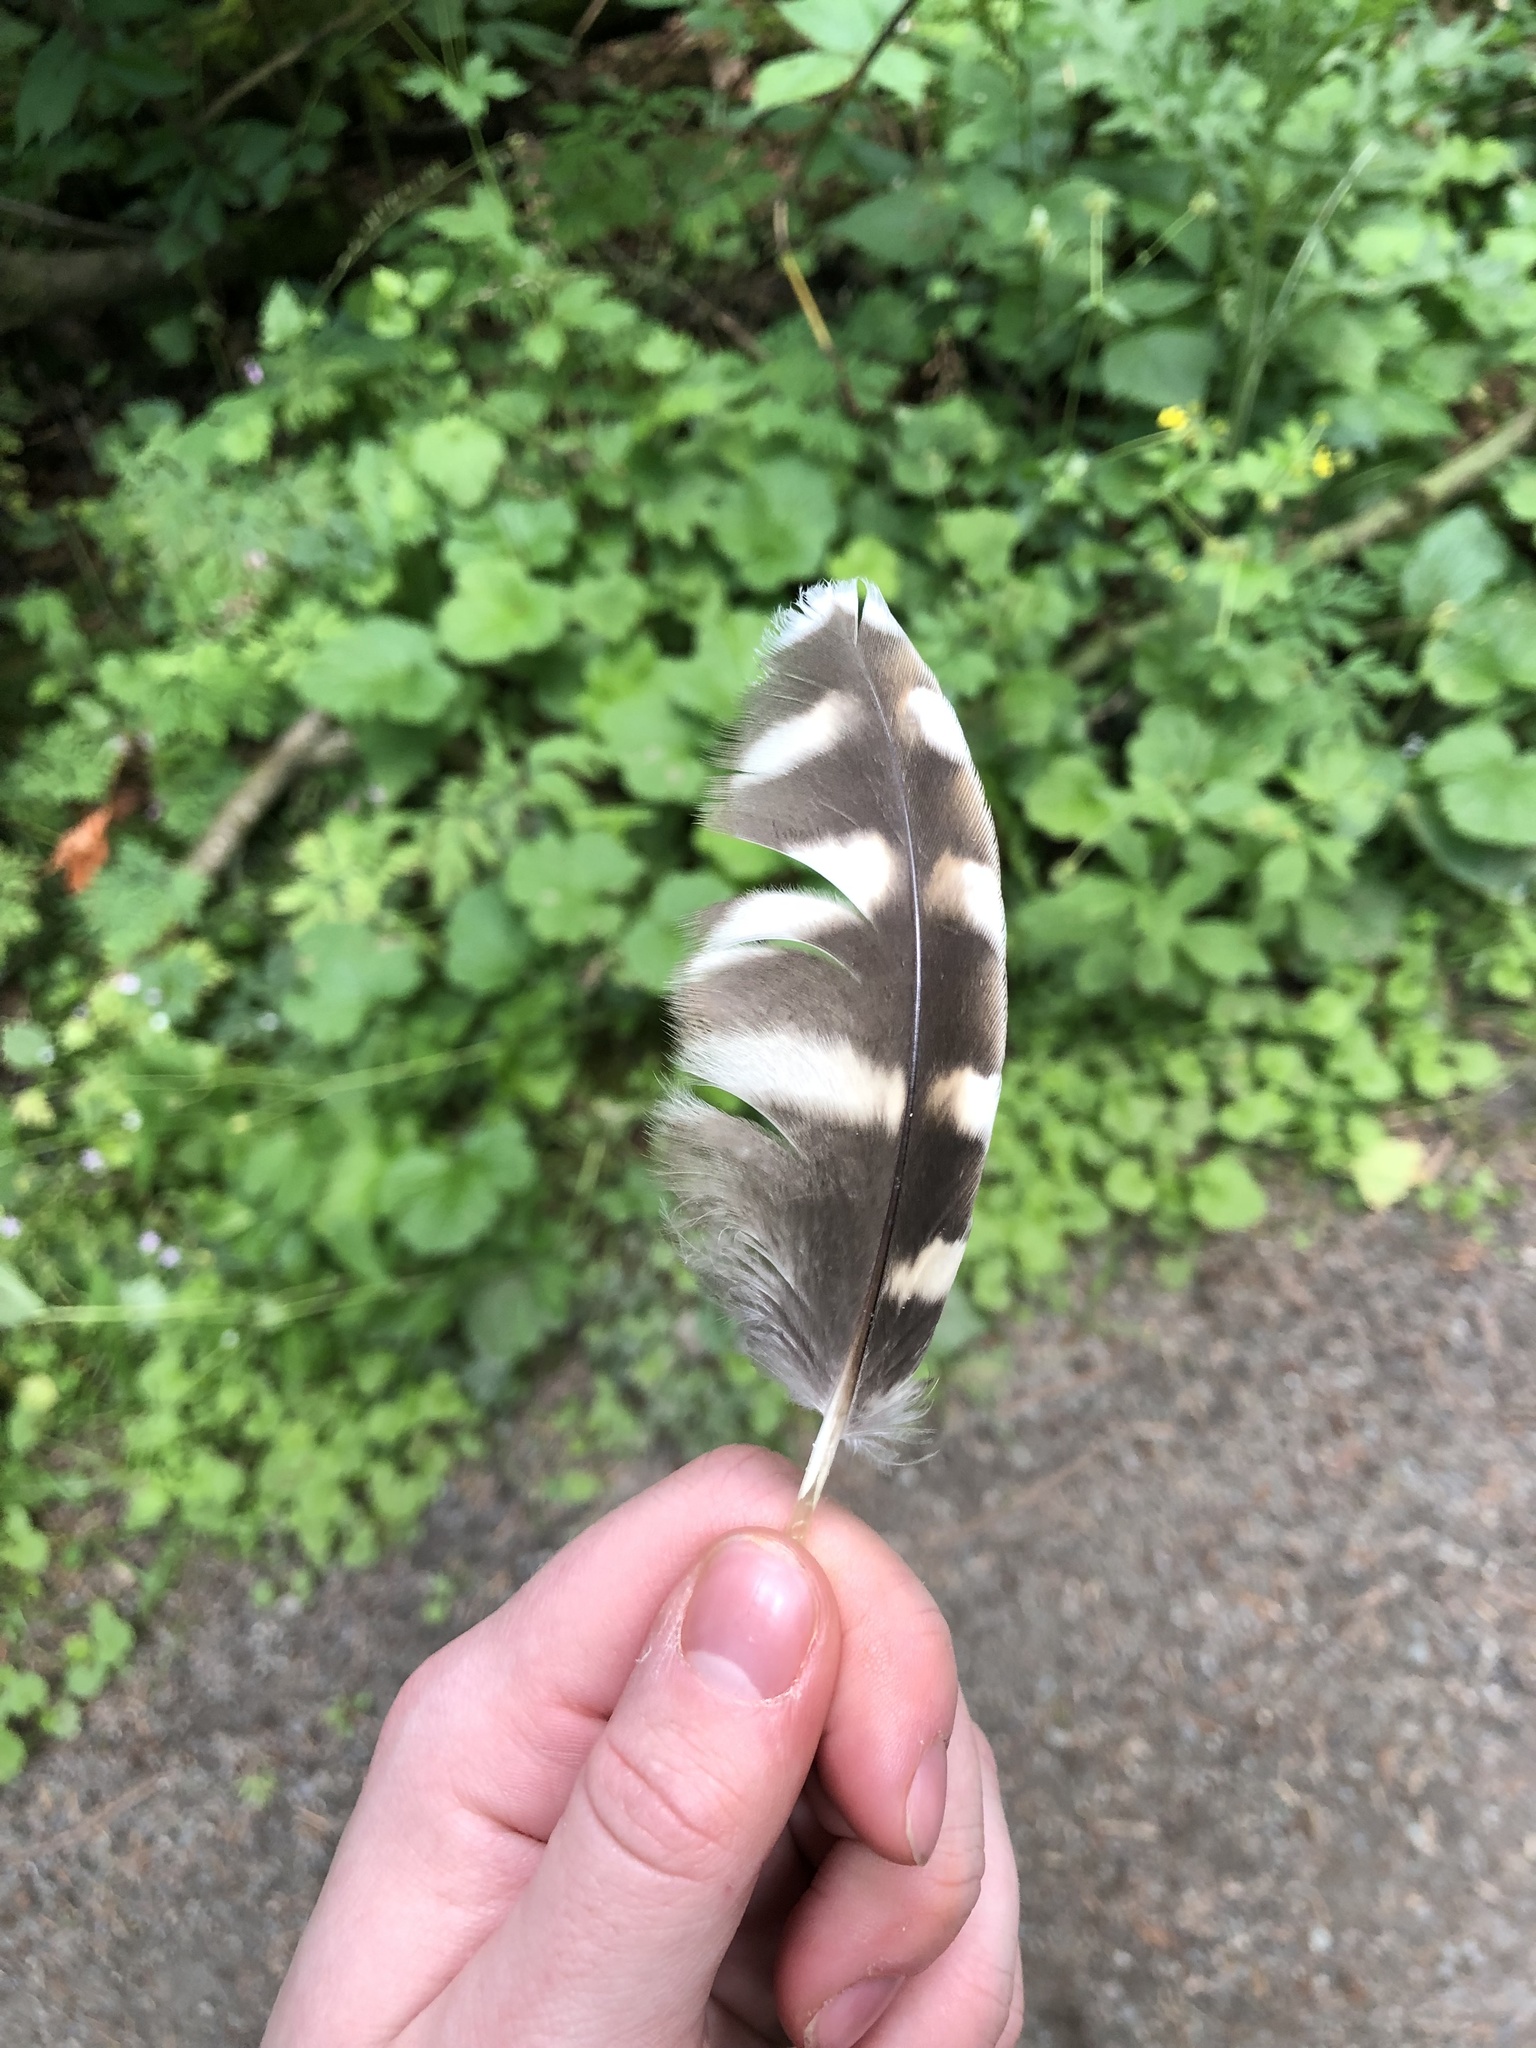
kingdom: Animalia
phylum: Chordata
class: Aves
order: Strigiformes
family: Strigidae
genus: Strix
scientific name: Strix varia
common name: Barred owl
